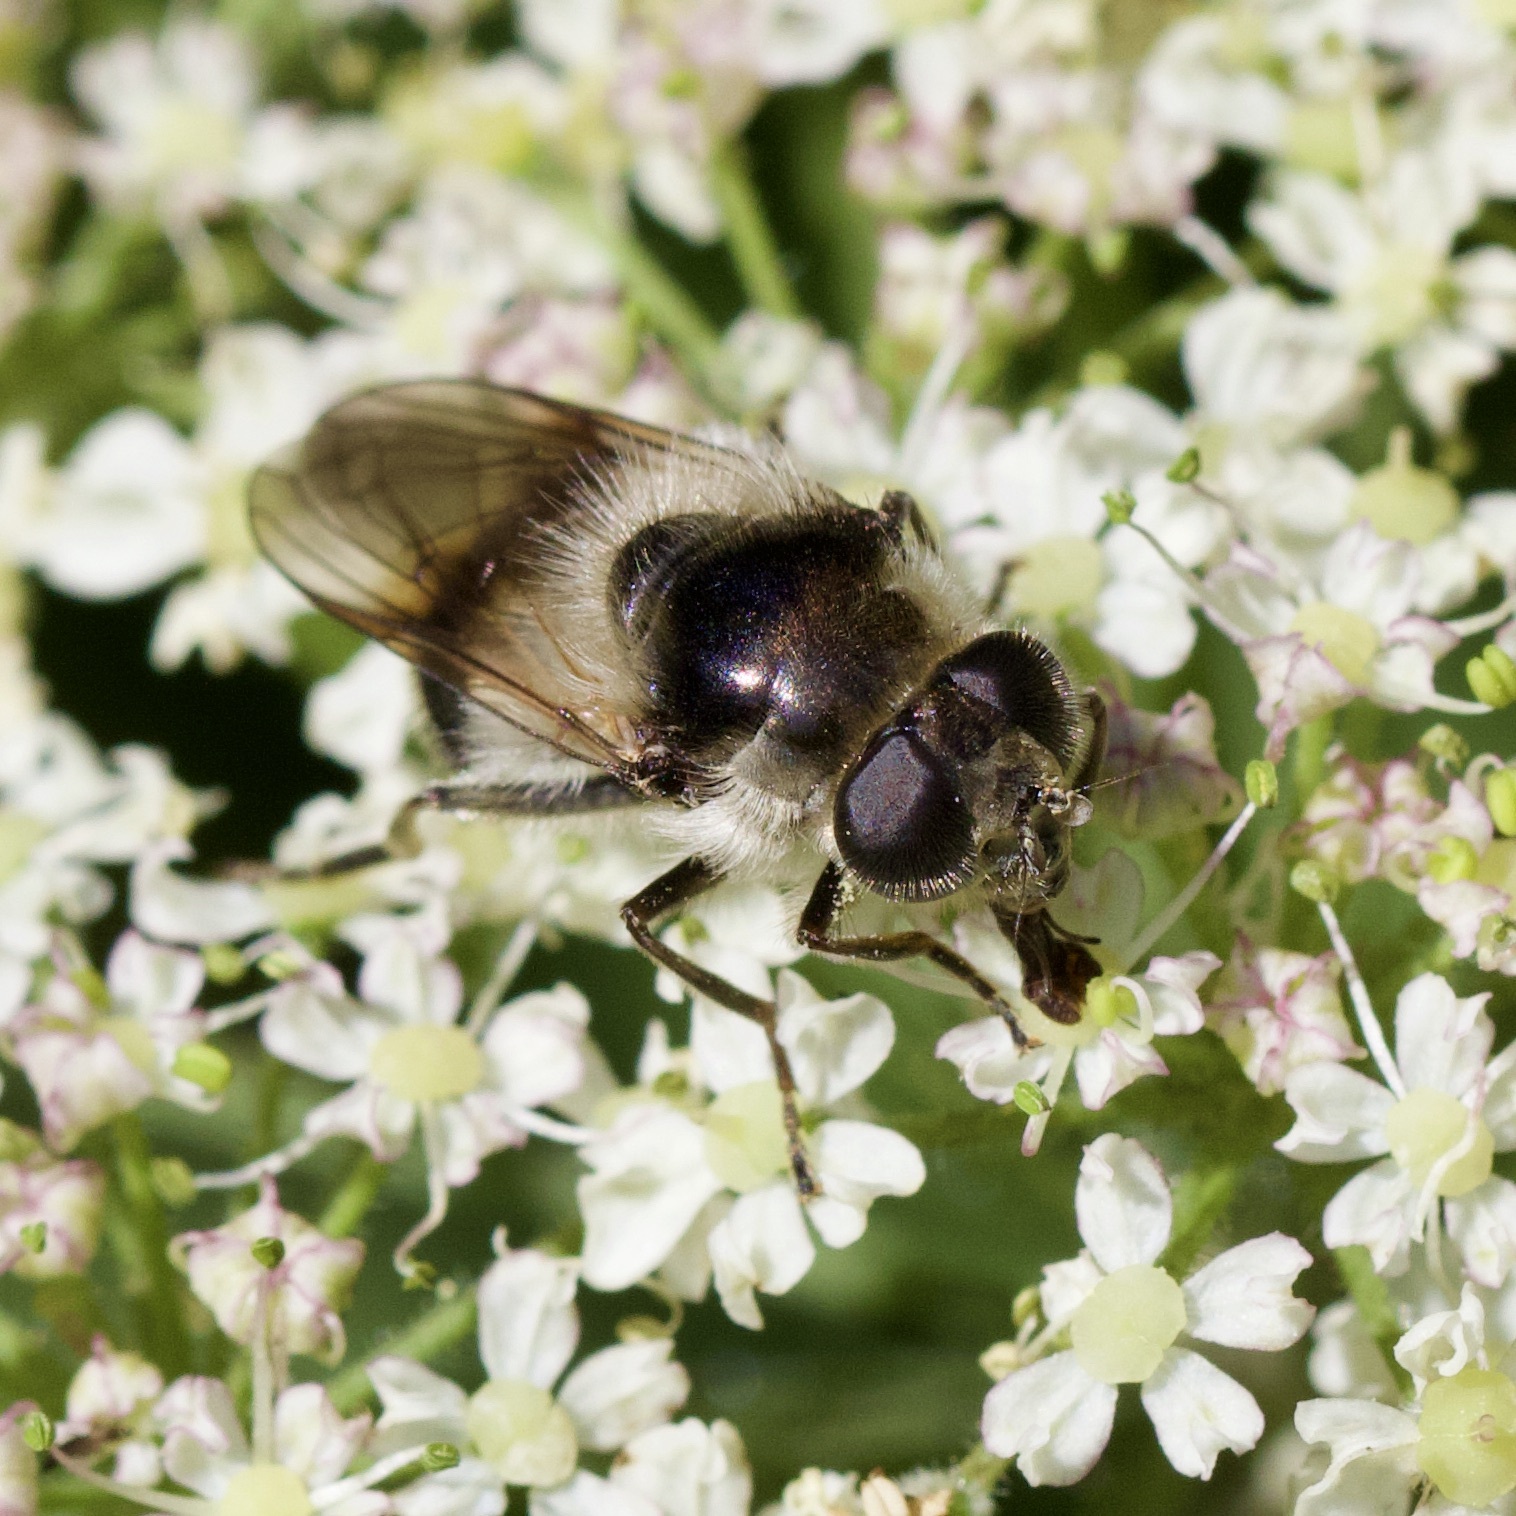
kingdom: Animalia
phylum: Arthropoda
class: Insecta
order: Diptera
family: Syrphidae
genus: Cheilosia
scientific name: Cheilosia illustrata
